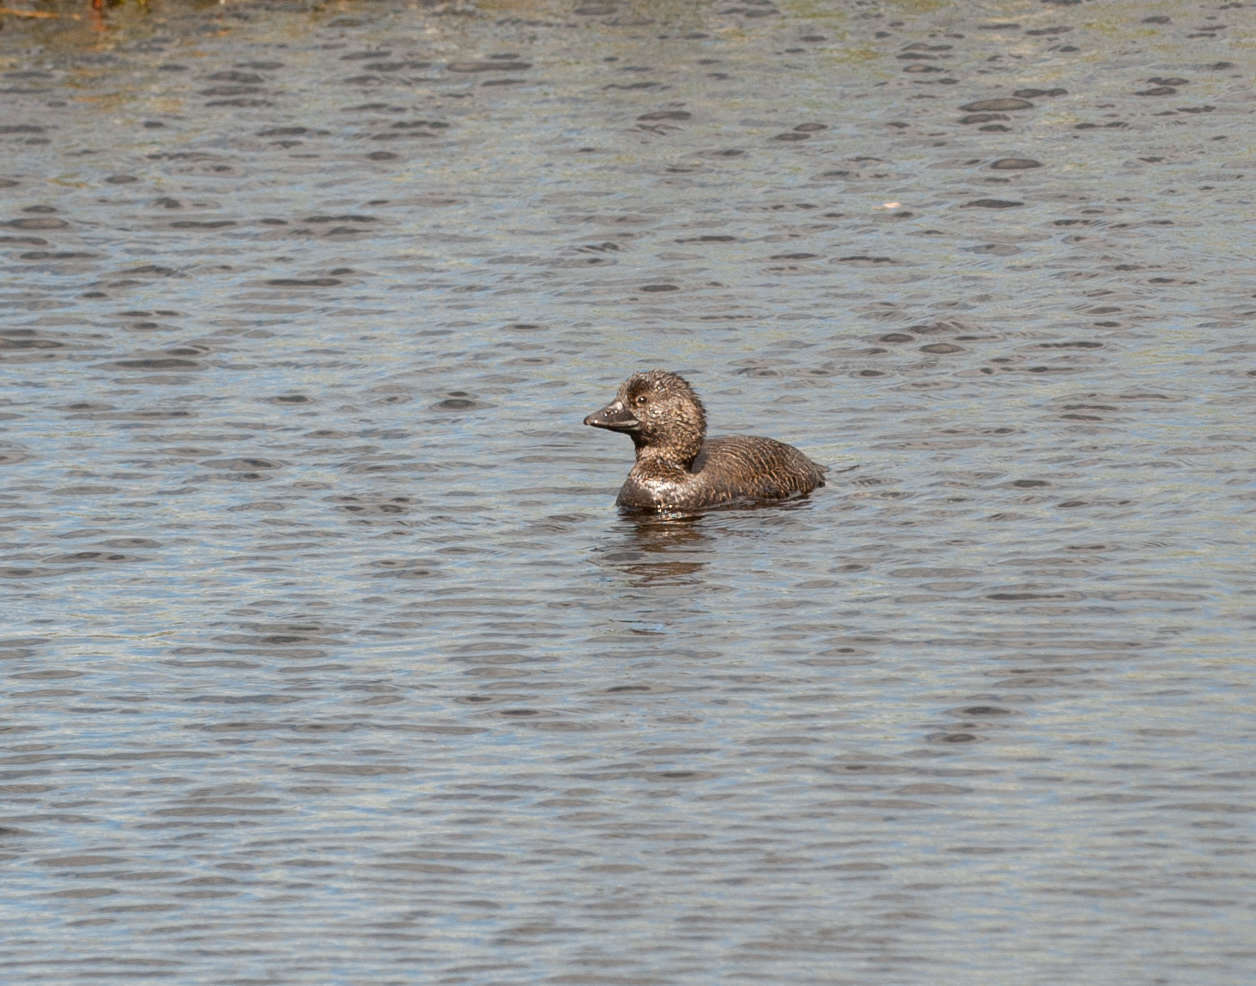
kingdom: Animalia
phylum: Chordata
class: Aves
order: Anseriformes
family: Anatidae
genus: Biziura
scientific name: Biziura lobata
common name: Musk duck
